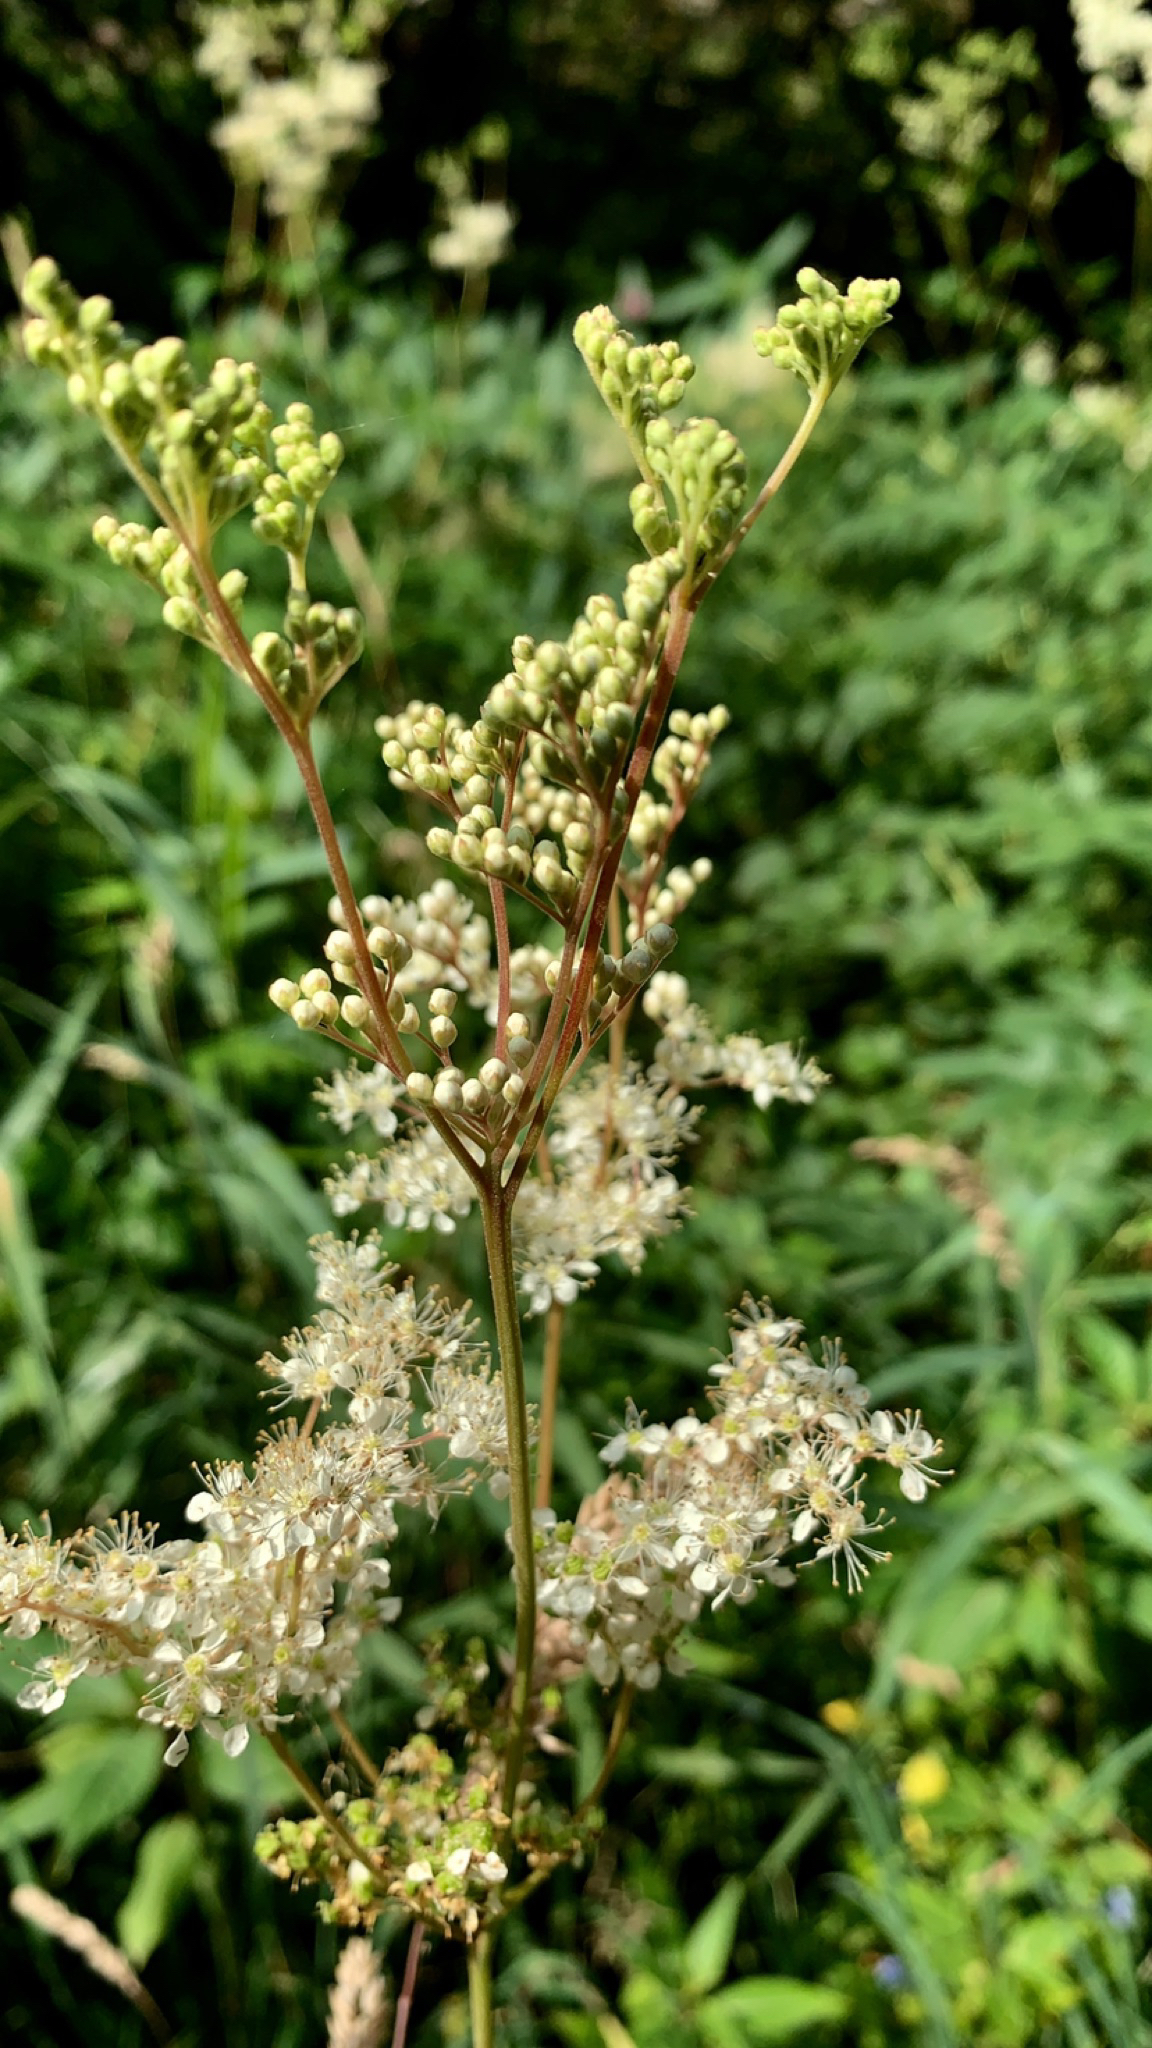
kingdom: Plantae
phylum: Tracheophyta
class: Magnoliopsida
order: Rosales
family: Rosaceae
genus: Filipendula
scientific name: Filipendula ulmaria
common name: Meadowsweet
